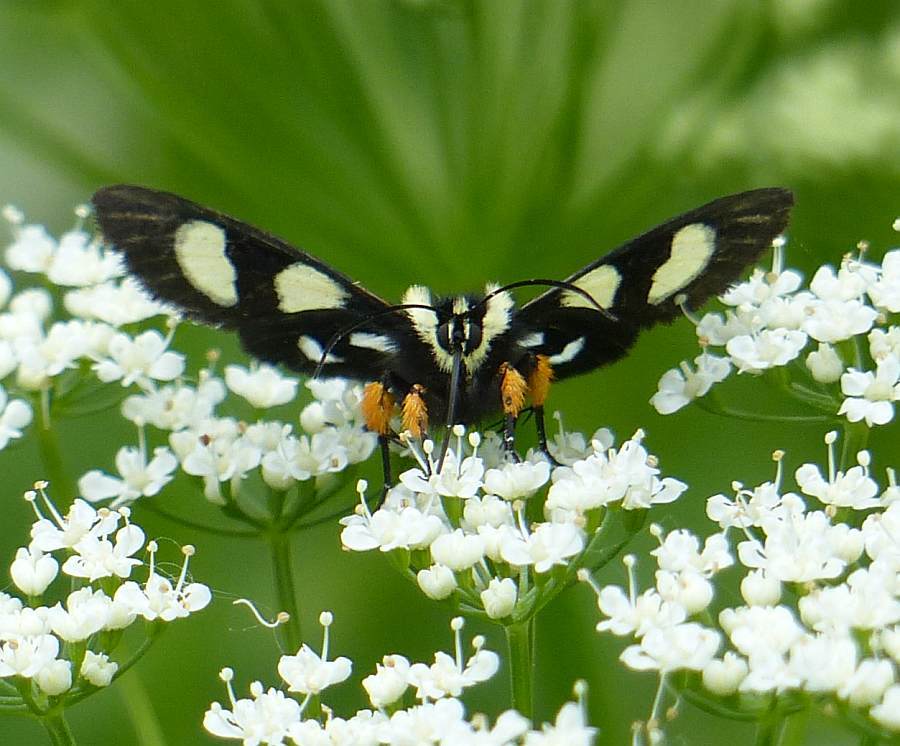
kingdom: Animalia
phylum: Arthropoda
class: Insecta
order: Lepidoptera
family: Noctuidae
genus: Alypia
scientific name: Alypia octomaculata
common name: Eight-spotted forester
